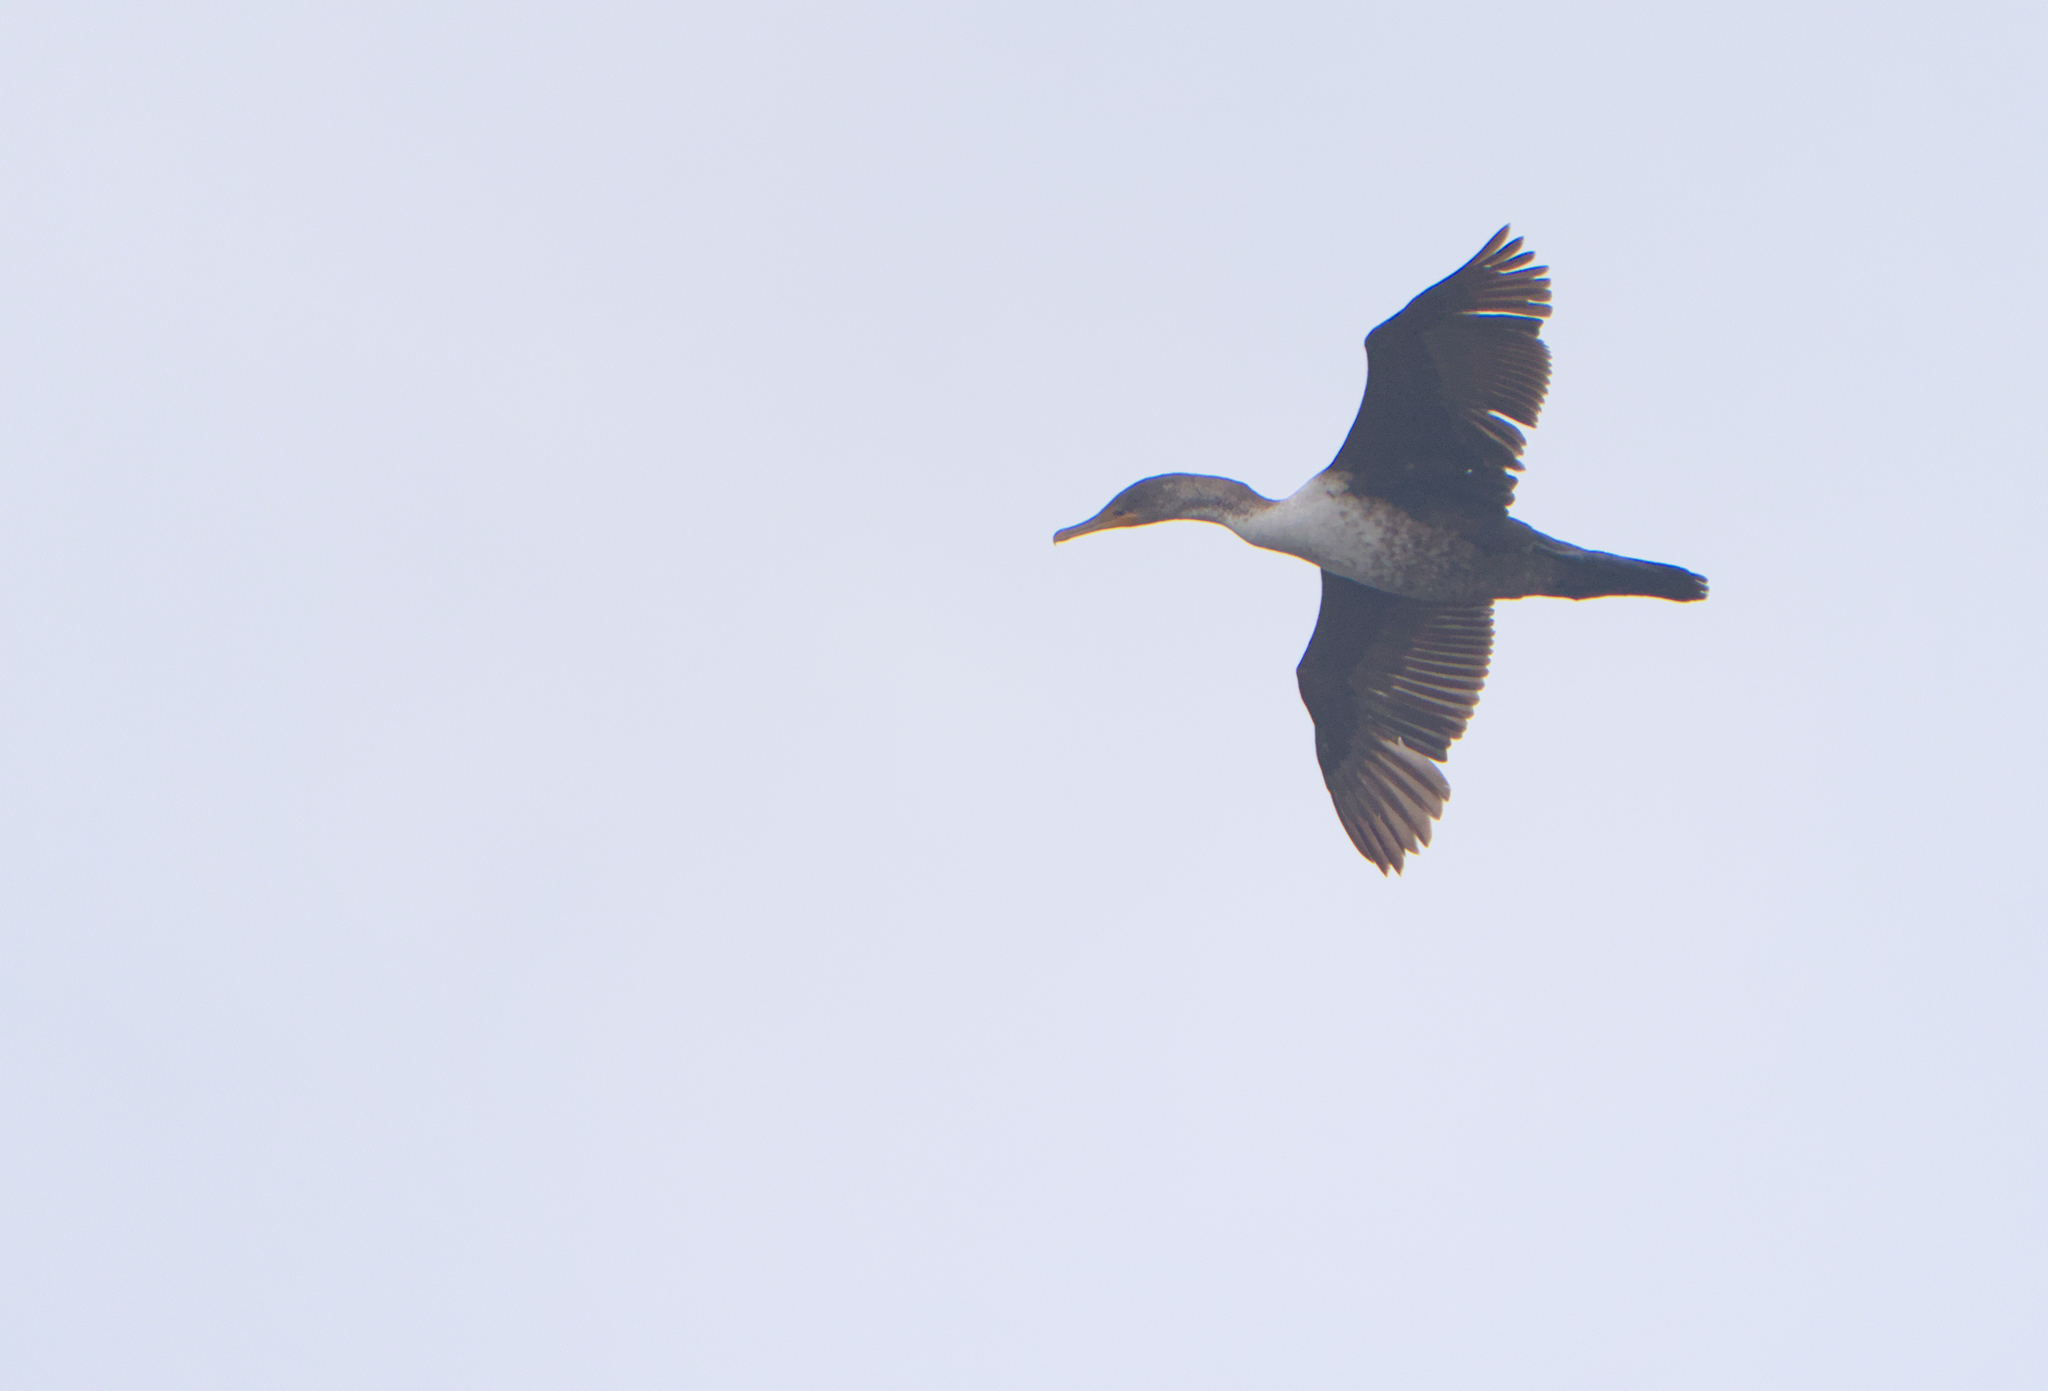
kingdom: Animalia
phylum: Chordata
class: Aves
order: Suliformes
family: Phalacrocoracidae
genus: Phalacrocorax
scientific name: Phalacrocorax auritus
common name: Double-crested cormorant
